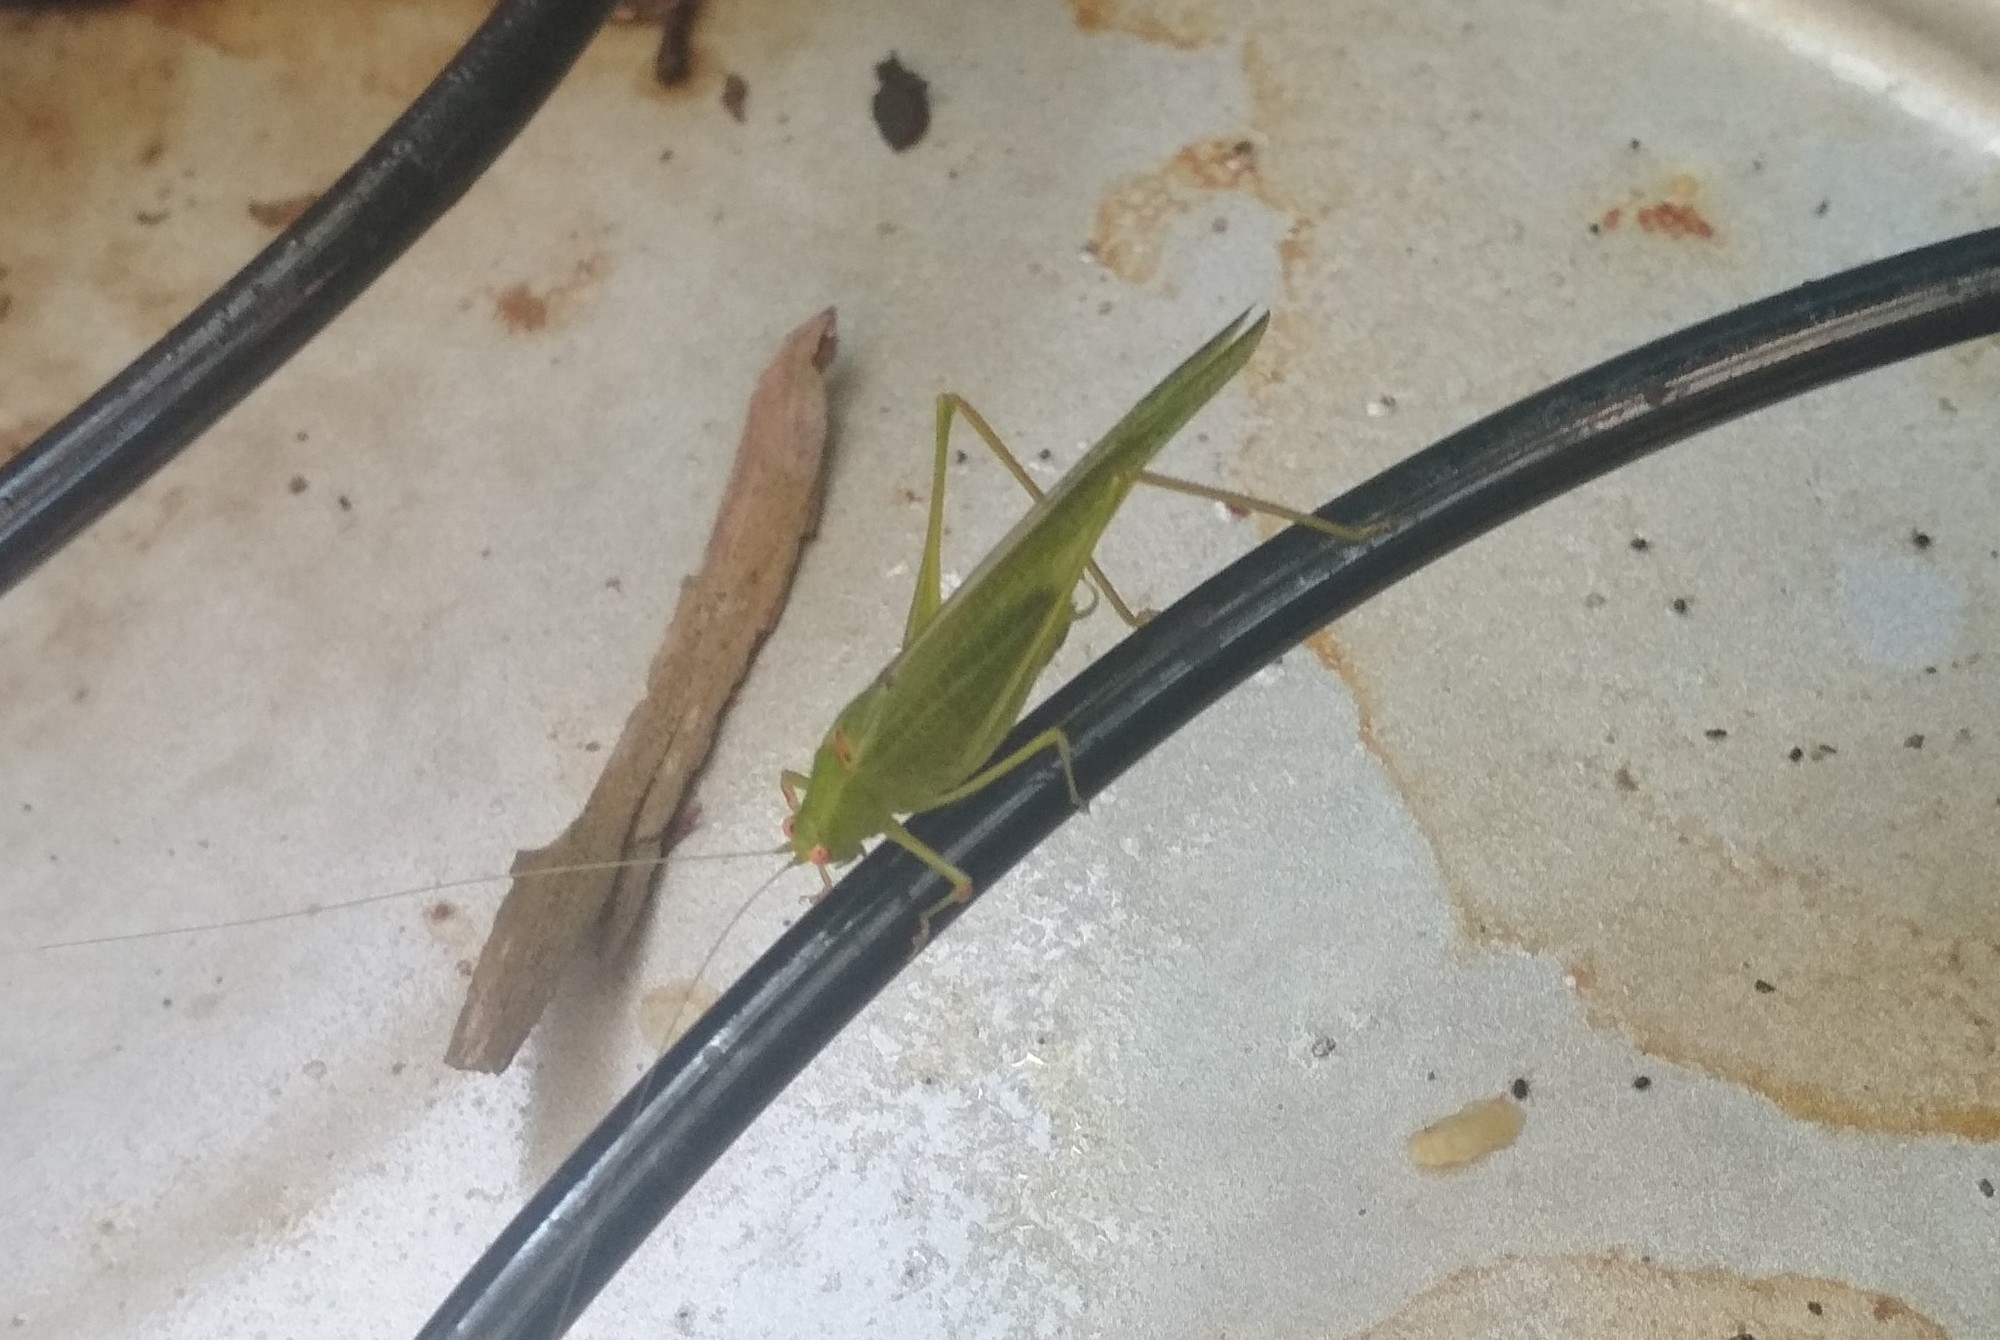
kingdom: Animalia
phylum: Arthropoda
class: Insecta
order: Orthoptera
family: Tettigoniidae
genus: Phaneroptera
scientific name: Phaneroptera nana
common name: Southern sickle bush-cricket
